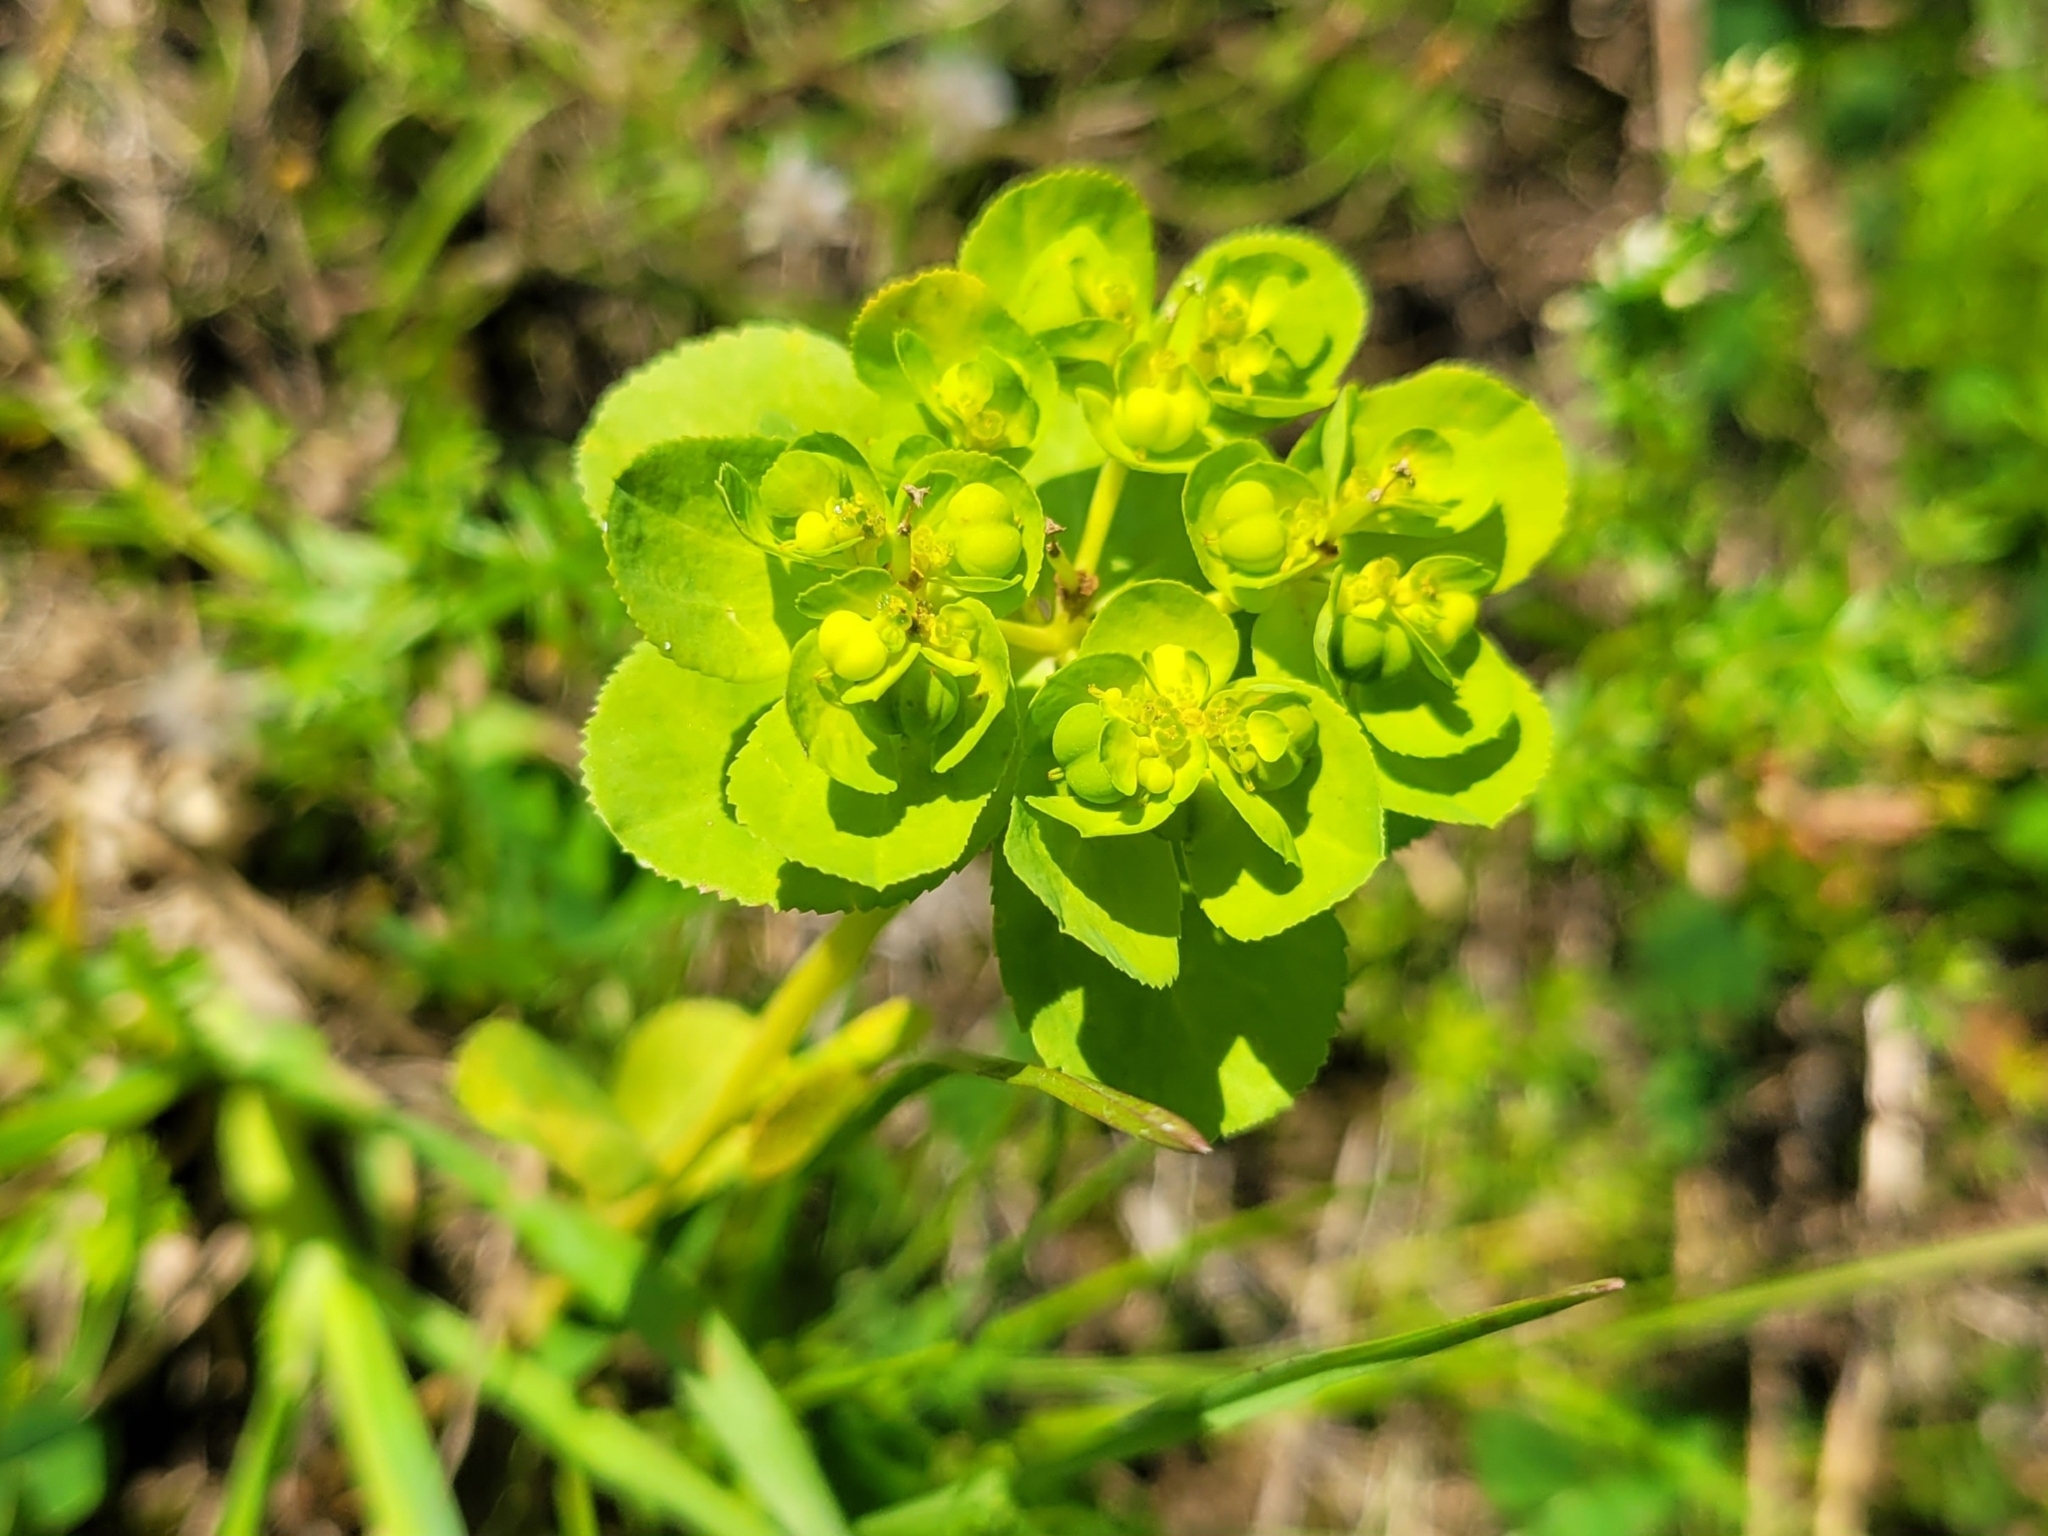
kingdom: Plantae
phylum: Tracheophyta
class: Magnoliopsida
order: Malpighiales
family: Euphorbiaceae
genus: Euphorbia
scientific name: Euphorbia helioscopia
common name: Sun spurge
